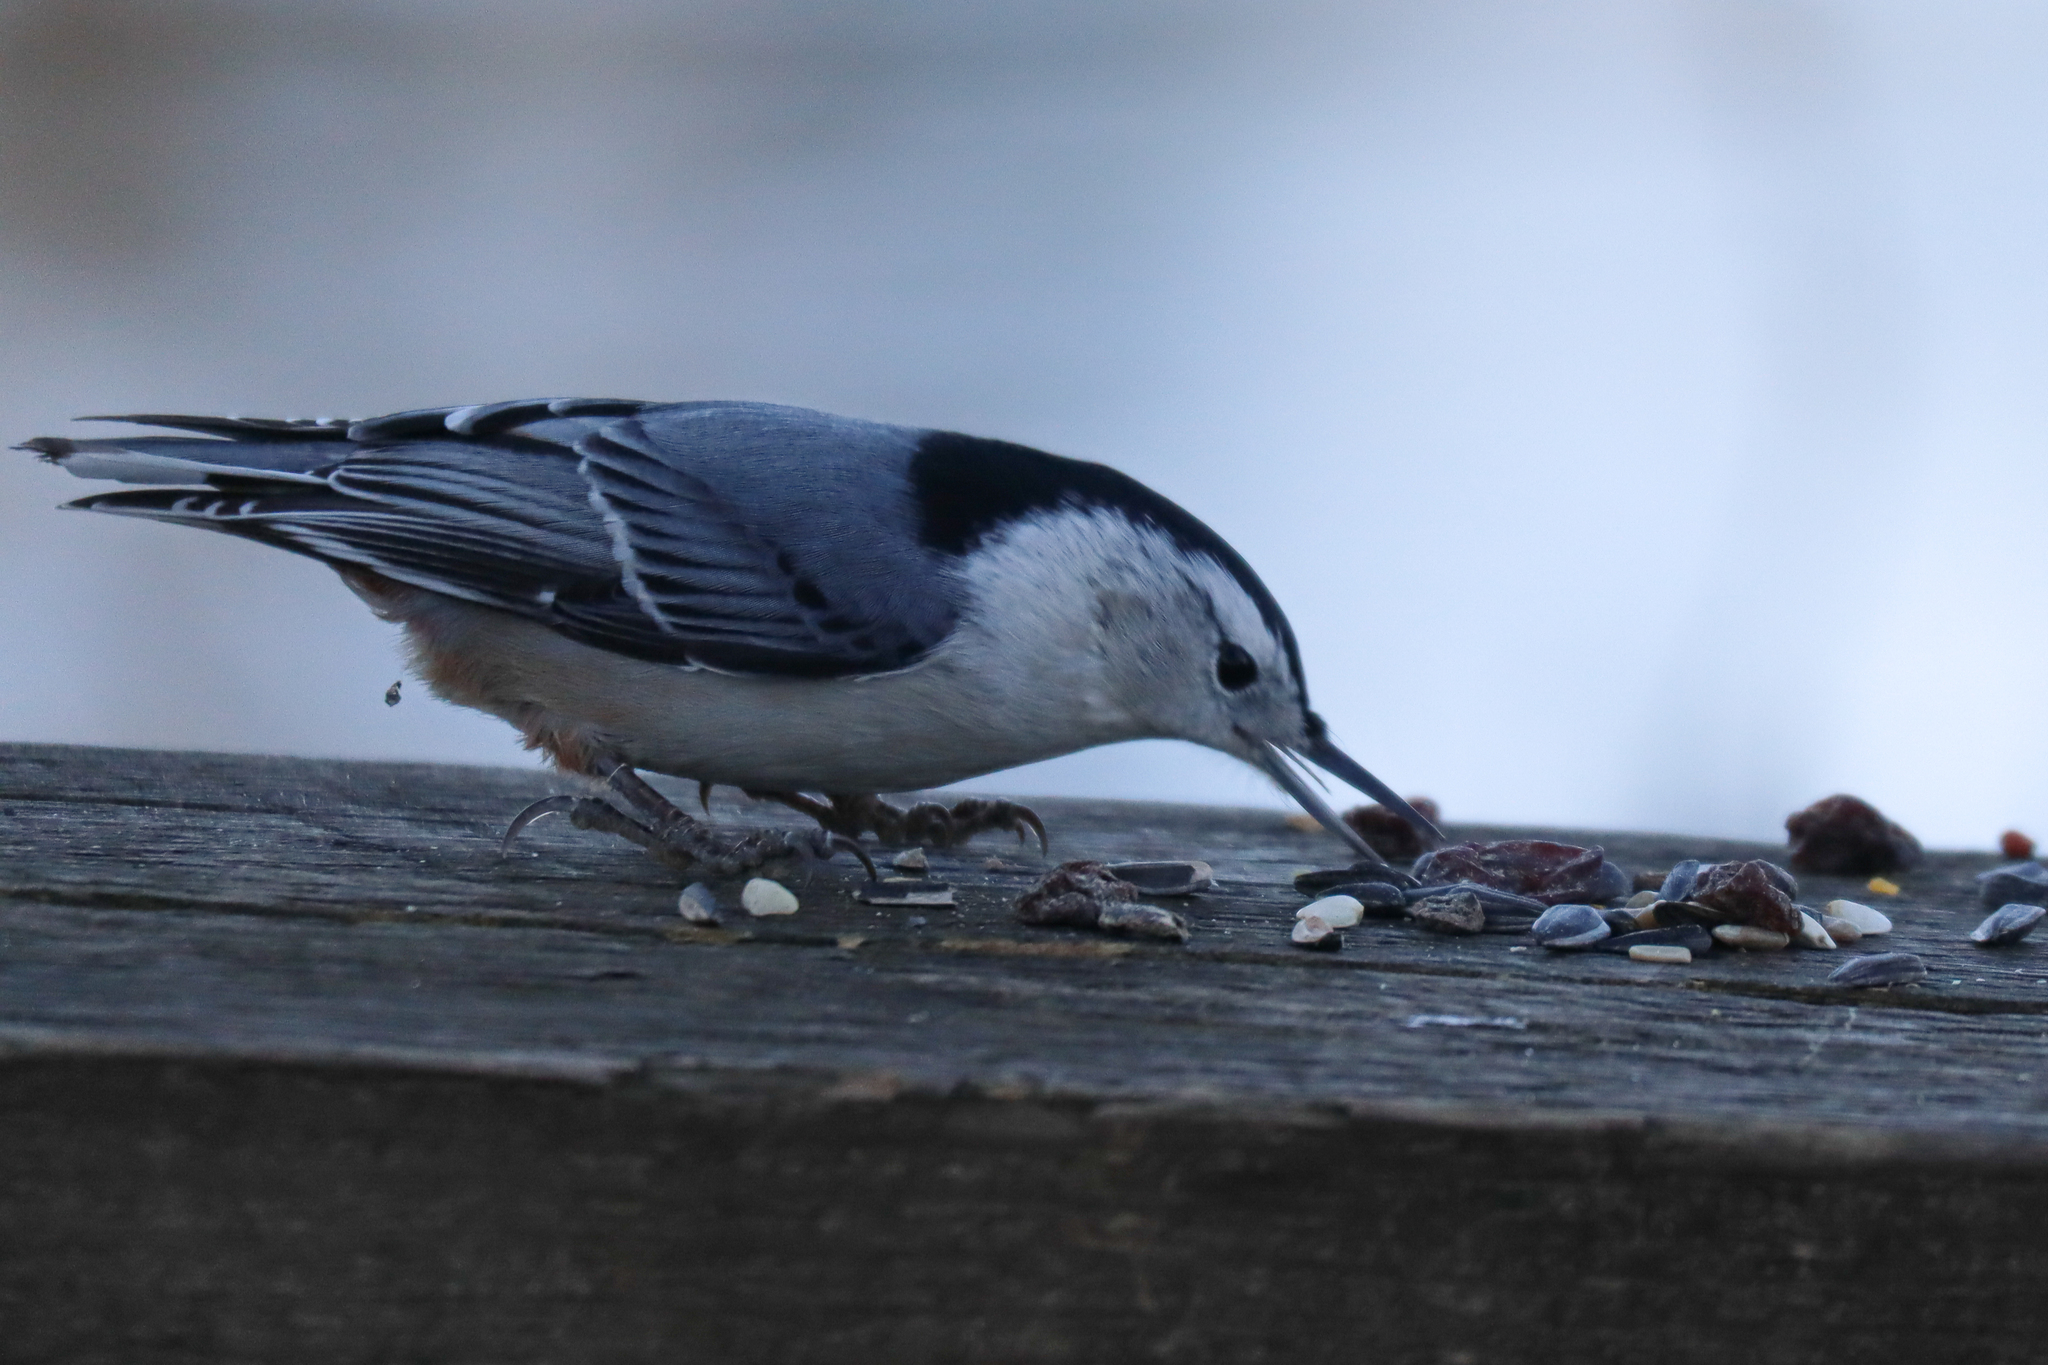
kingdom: Animalia
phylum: Chordata
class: Aves
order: Passeriformes
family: Sittidae
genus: Sitta
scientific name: Sitta carolinensis
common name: White-breasted nuthatch
